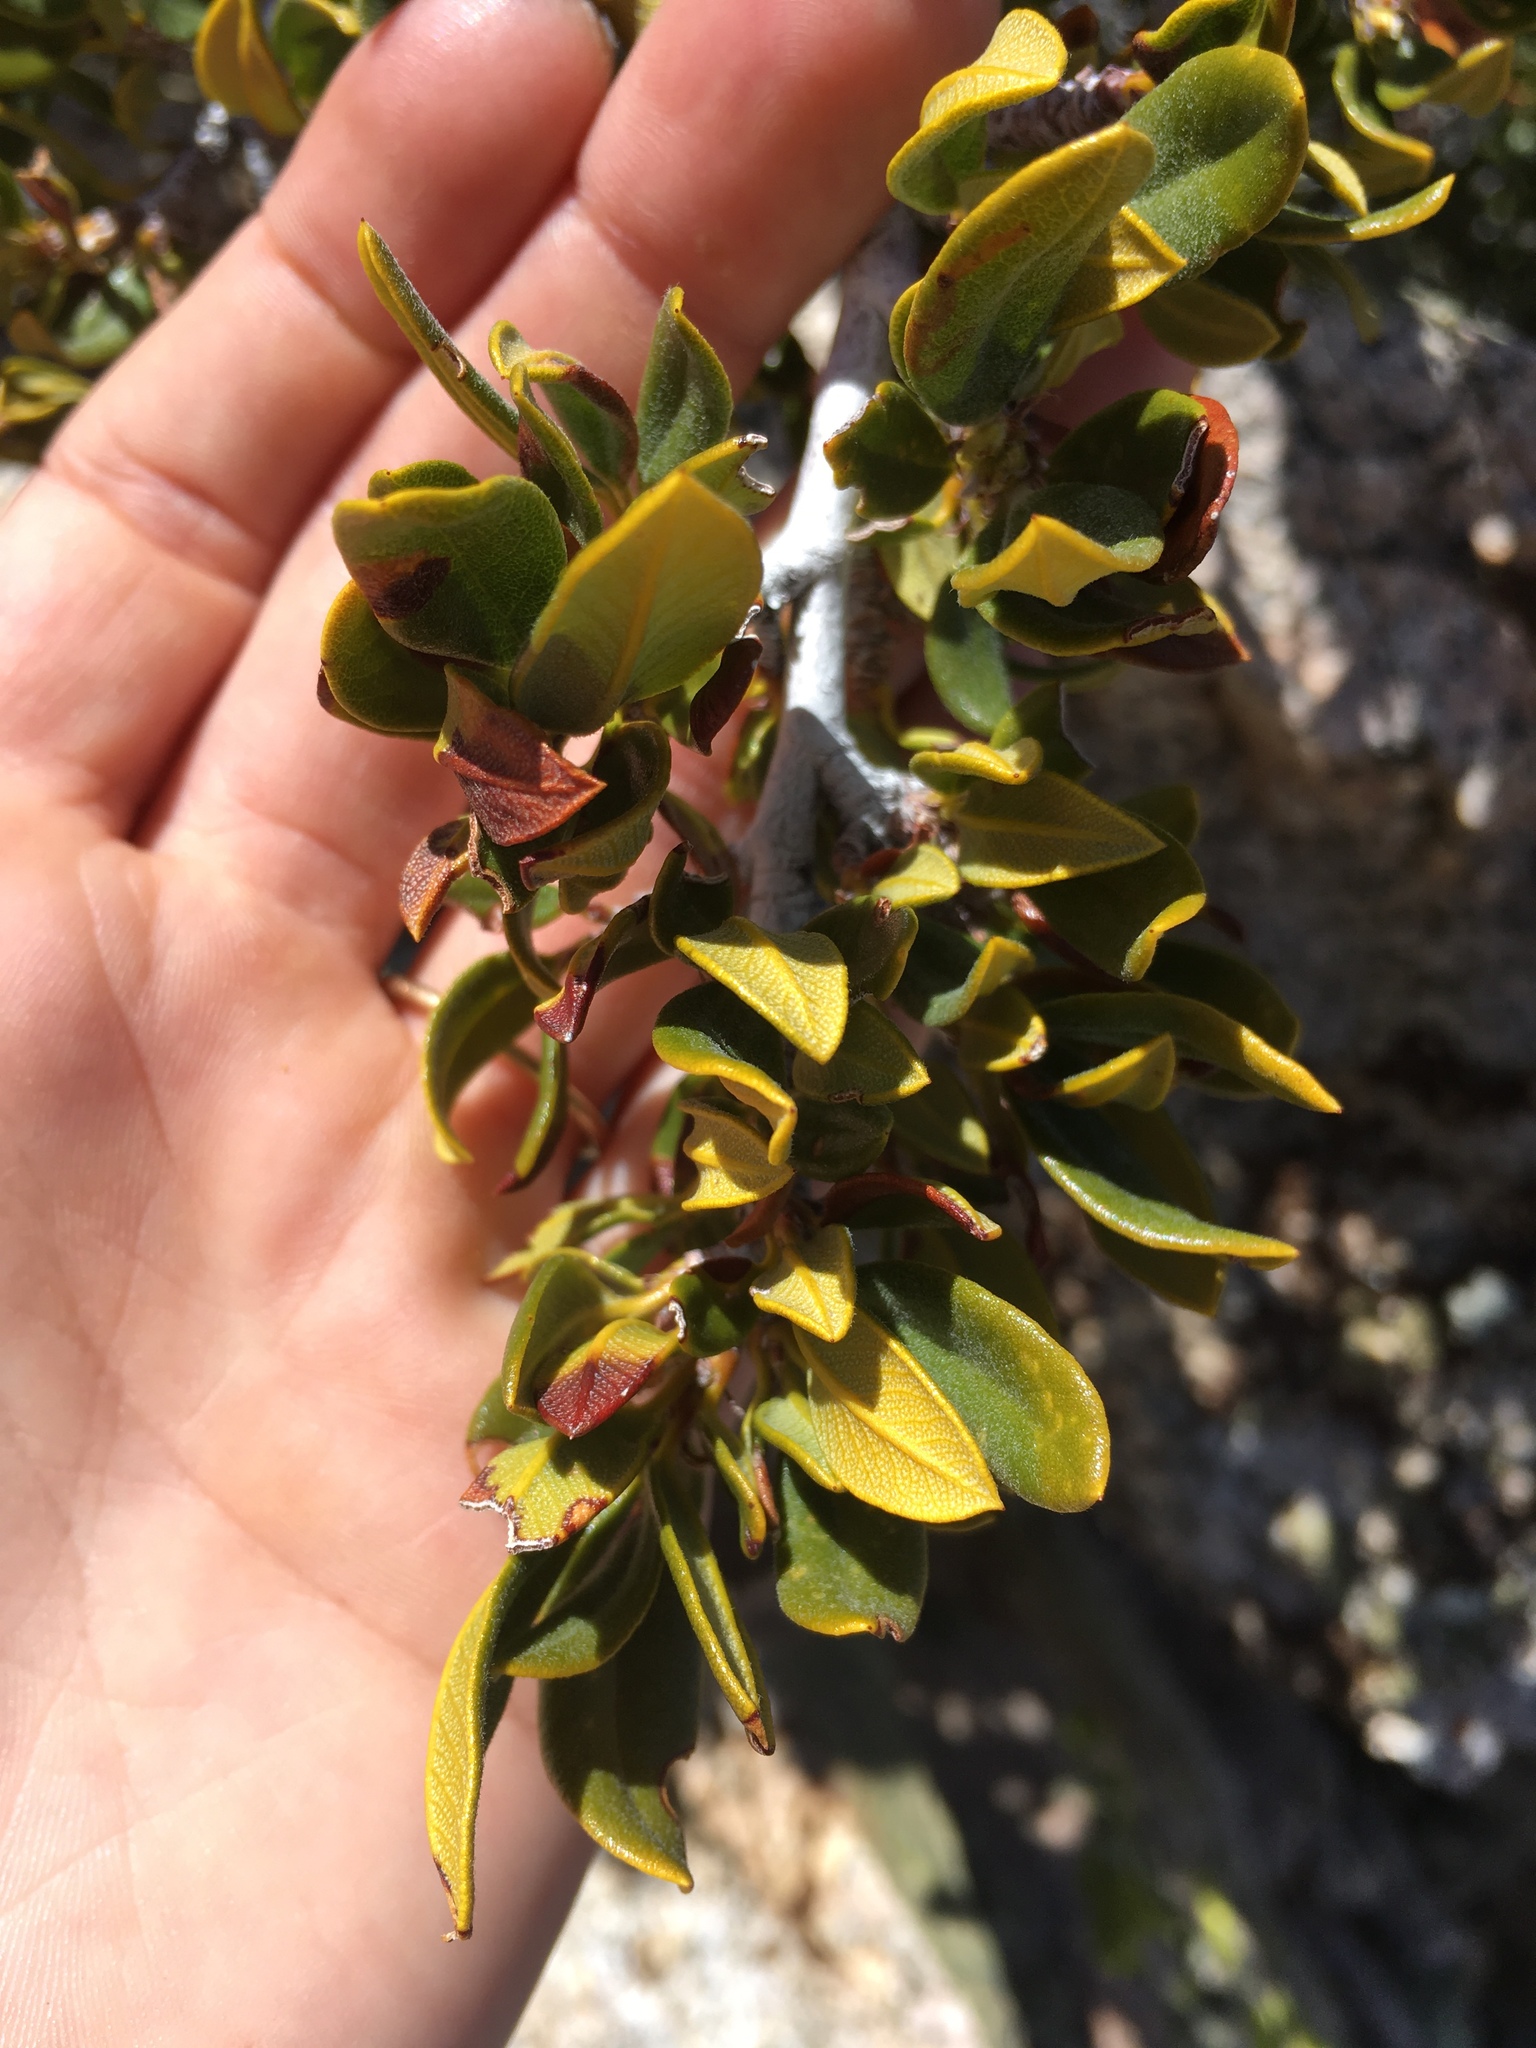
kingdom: Plantae
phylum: Tracheophyta
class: Magnoliopsida
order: Rosales
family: Rosaceae
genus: Cercocarpus
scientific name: Cercocarpus ledifolius
